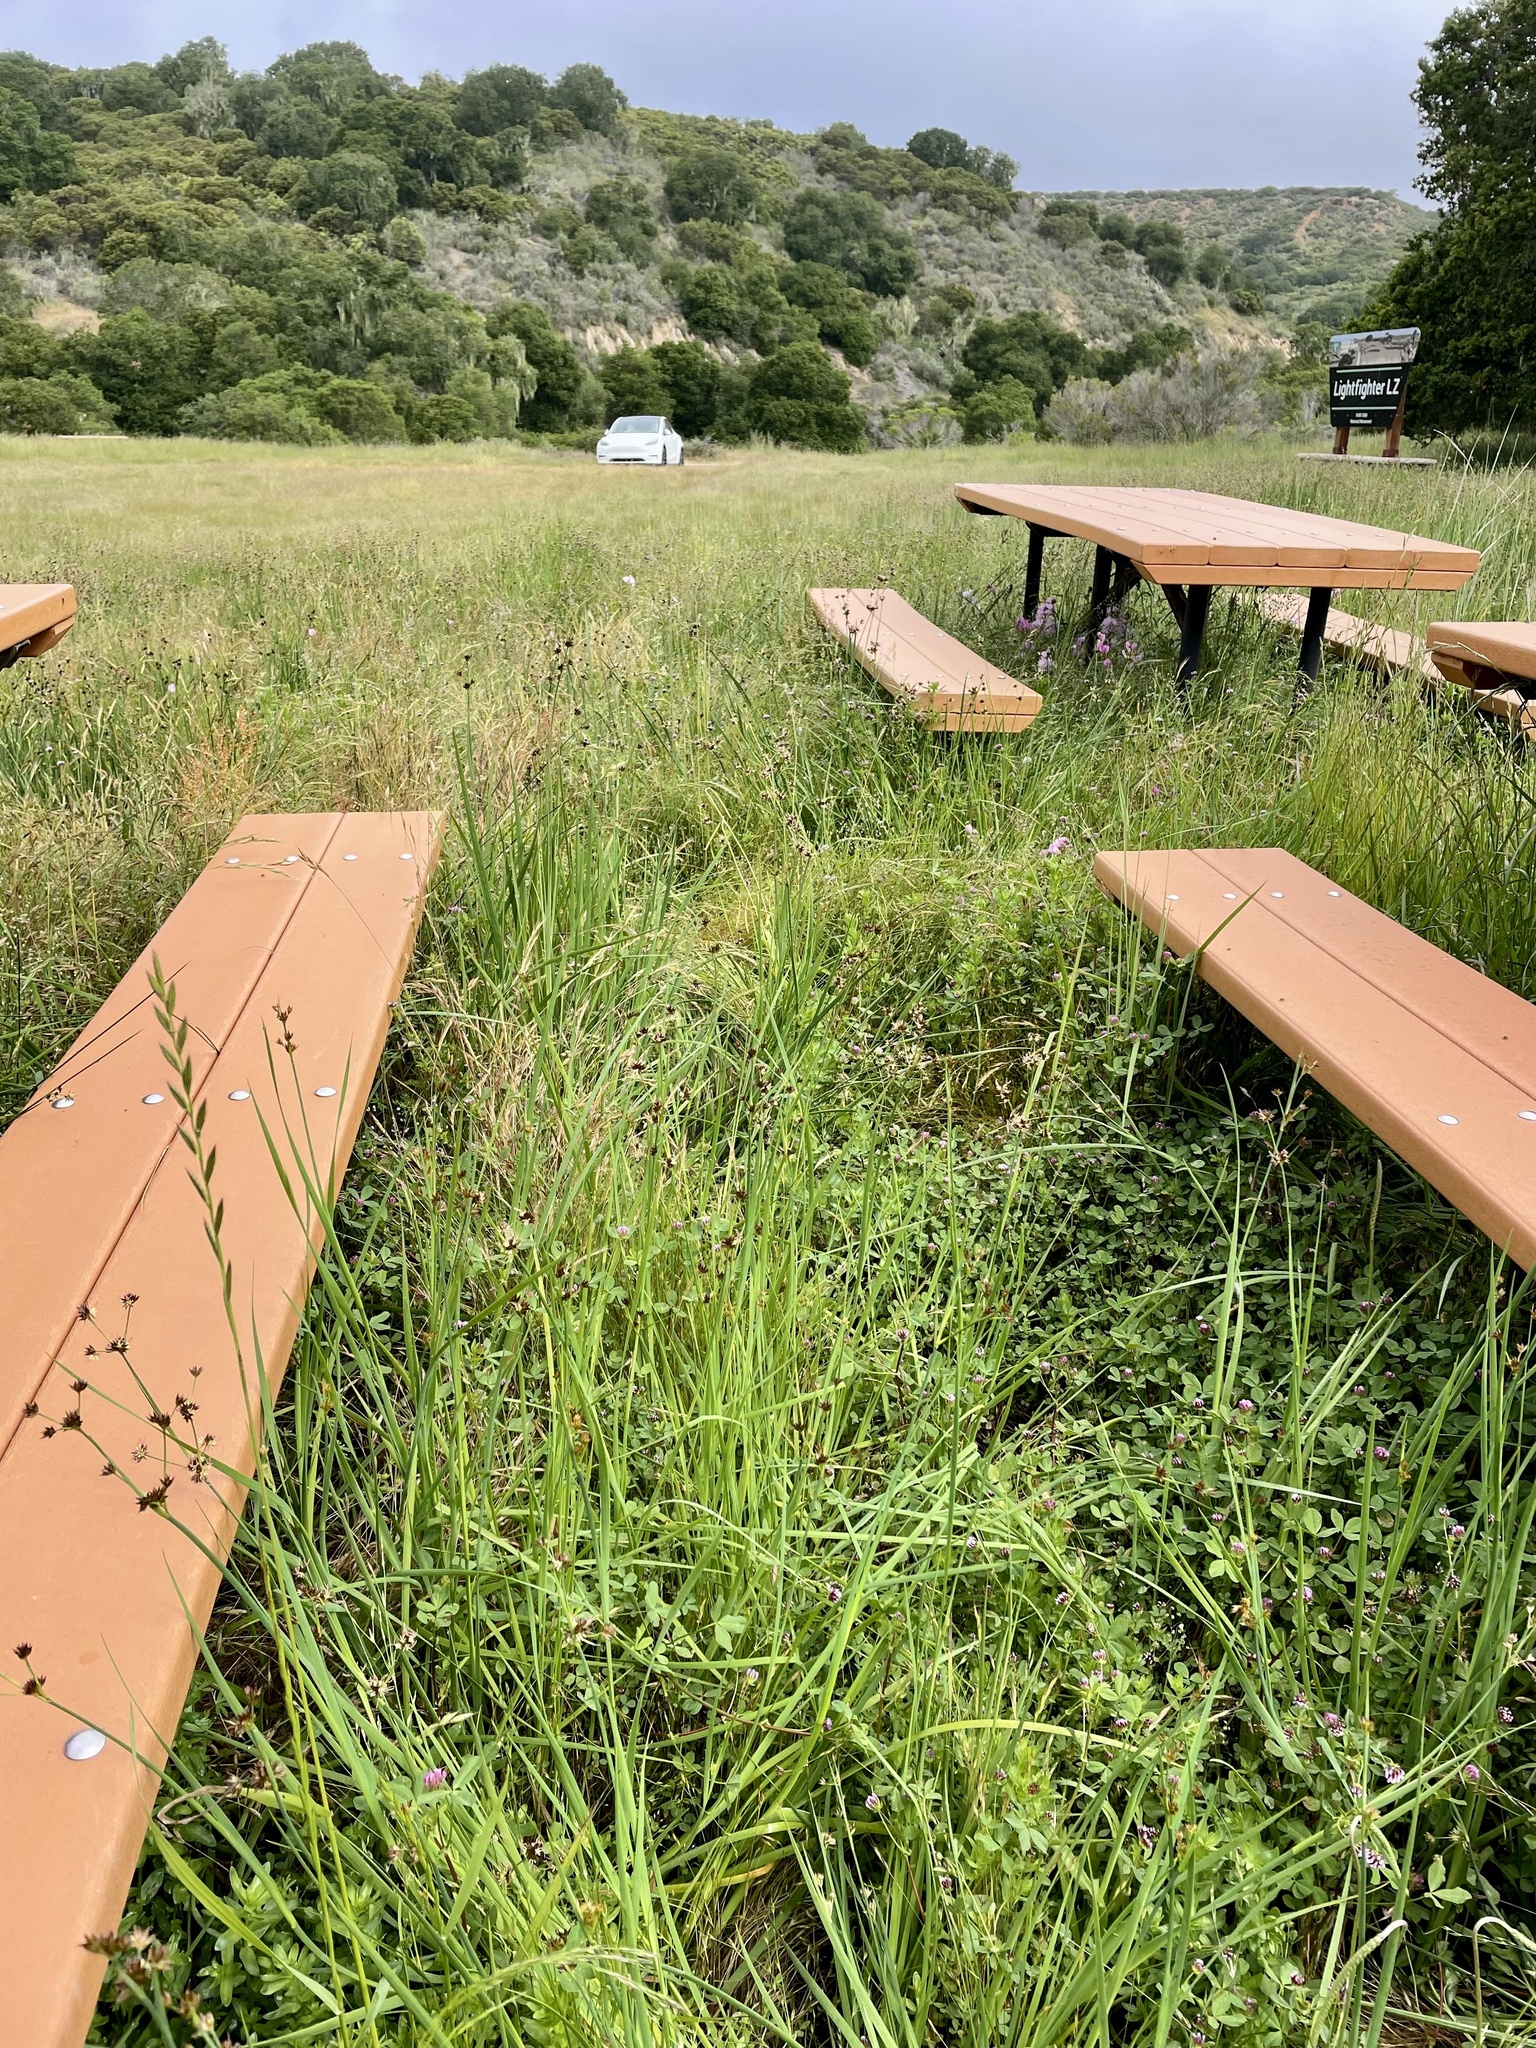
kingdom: Plantae
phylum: Tracheophyta
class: Magnoliopsida
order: Fabales
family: Fabaceae
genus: Trifolium
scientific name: Trifolium amplectens
